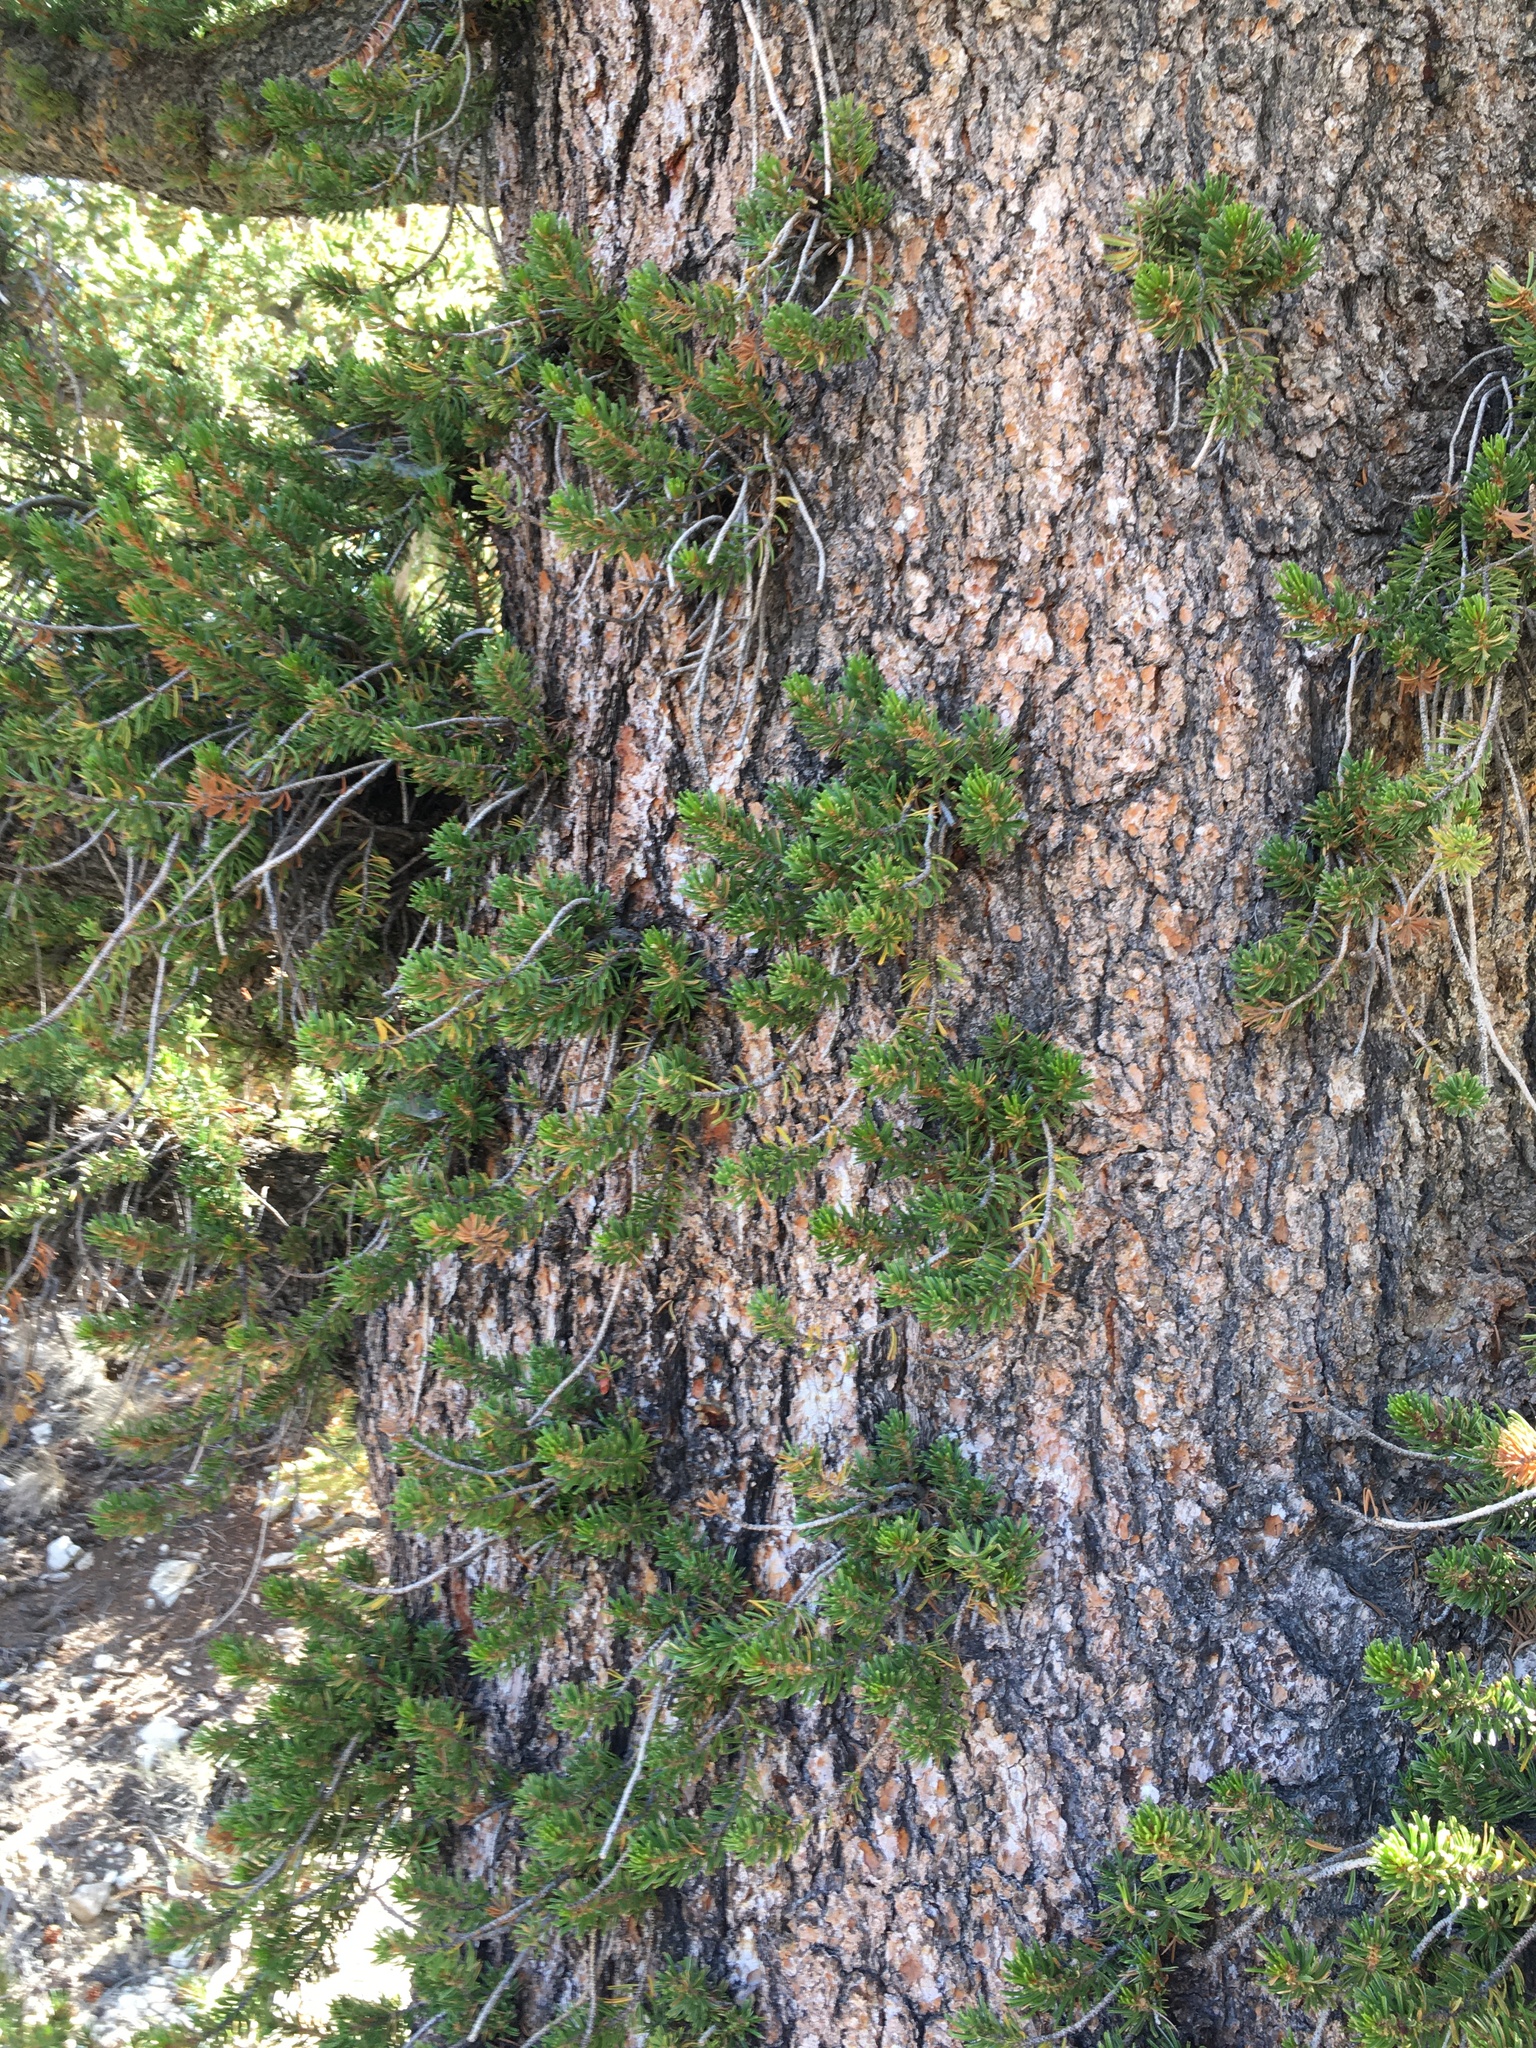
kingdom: Plantae
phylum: Tracheophyta
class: Pinopsida
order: Pinales
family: Pinaceae
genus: Pinus
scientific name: Pinus longaeva
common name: Intermountain bristlecone pine
